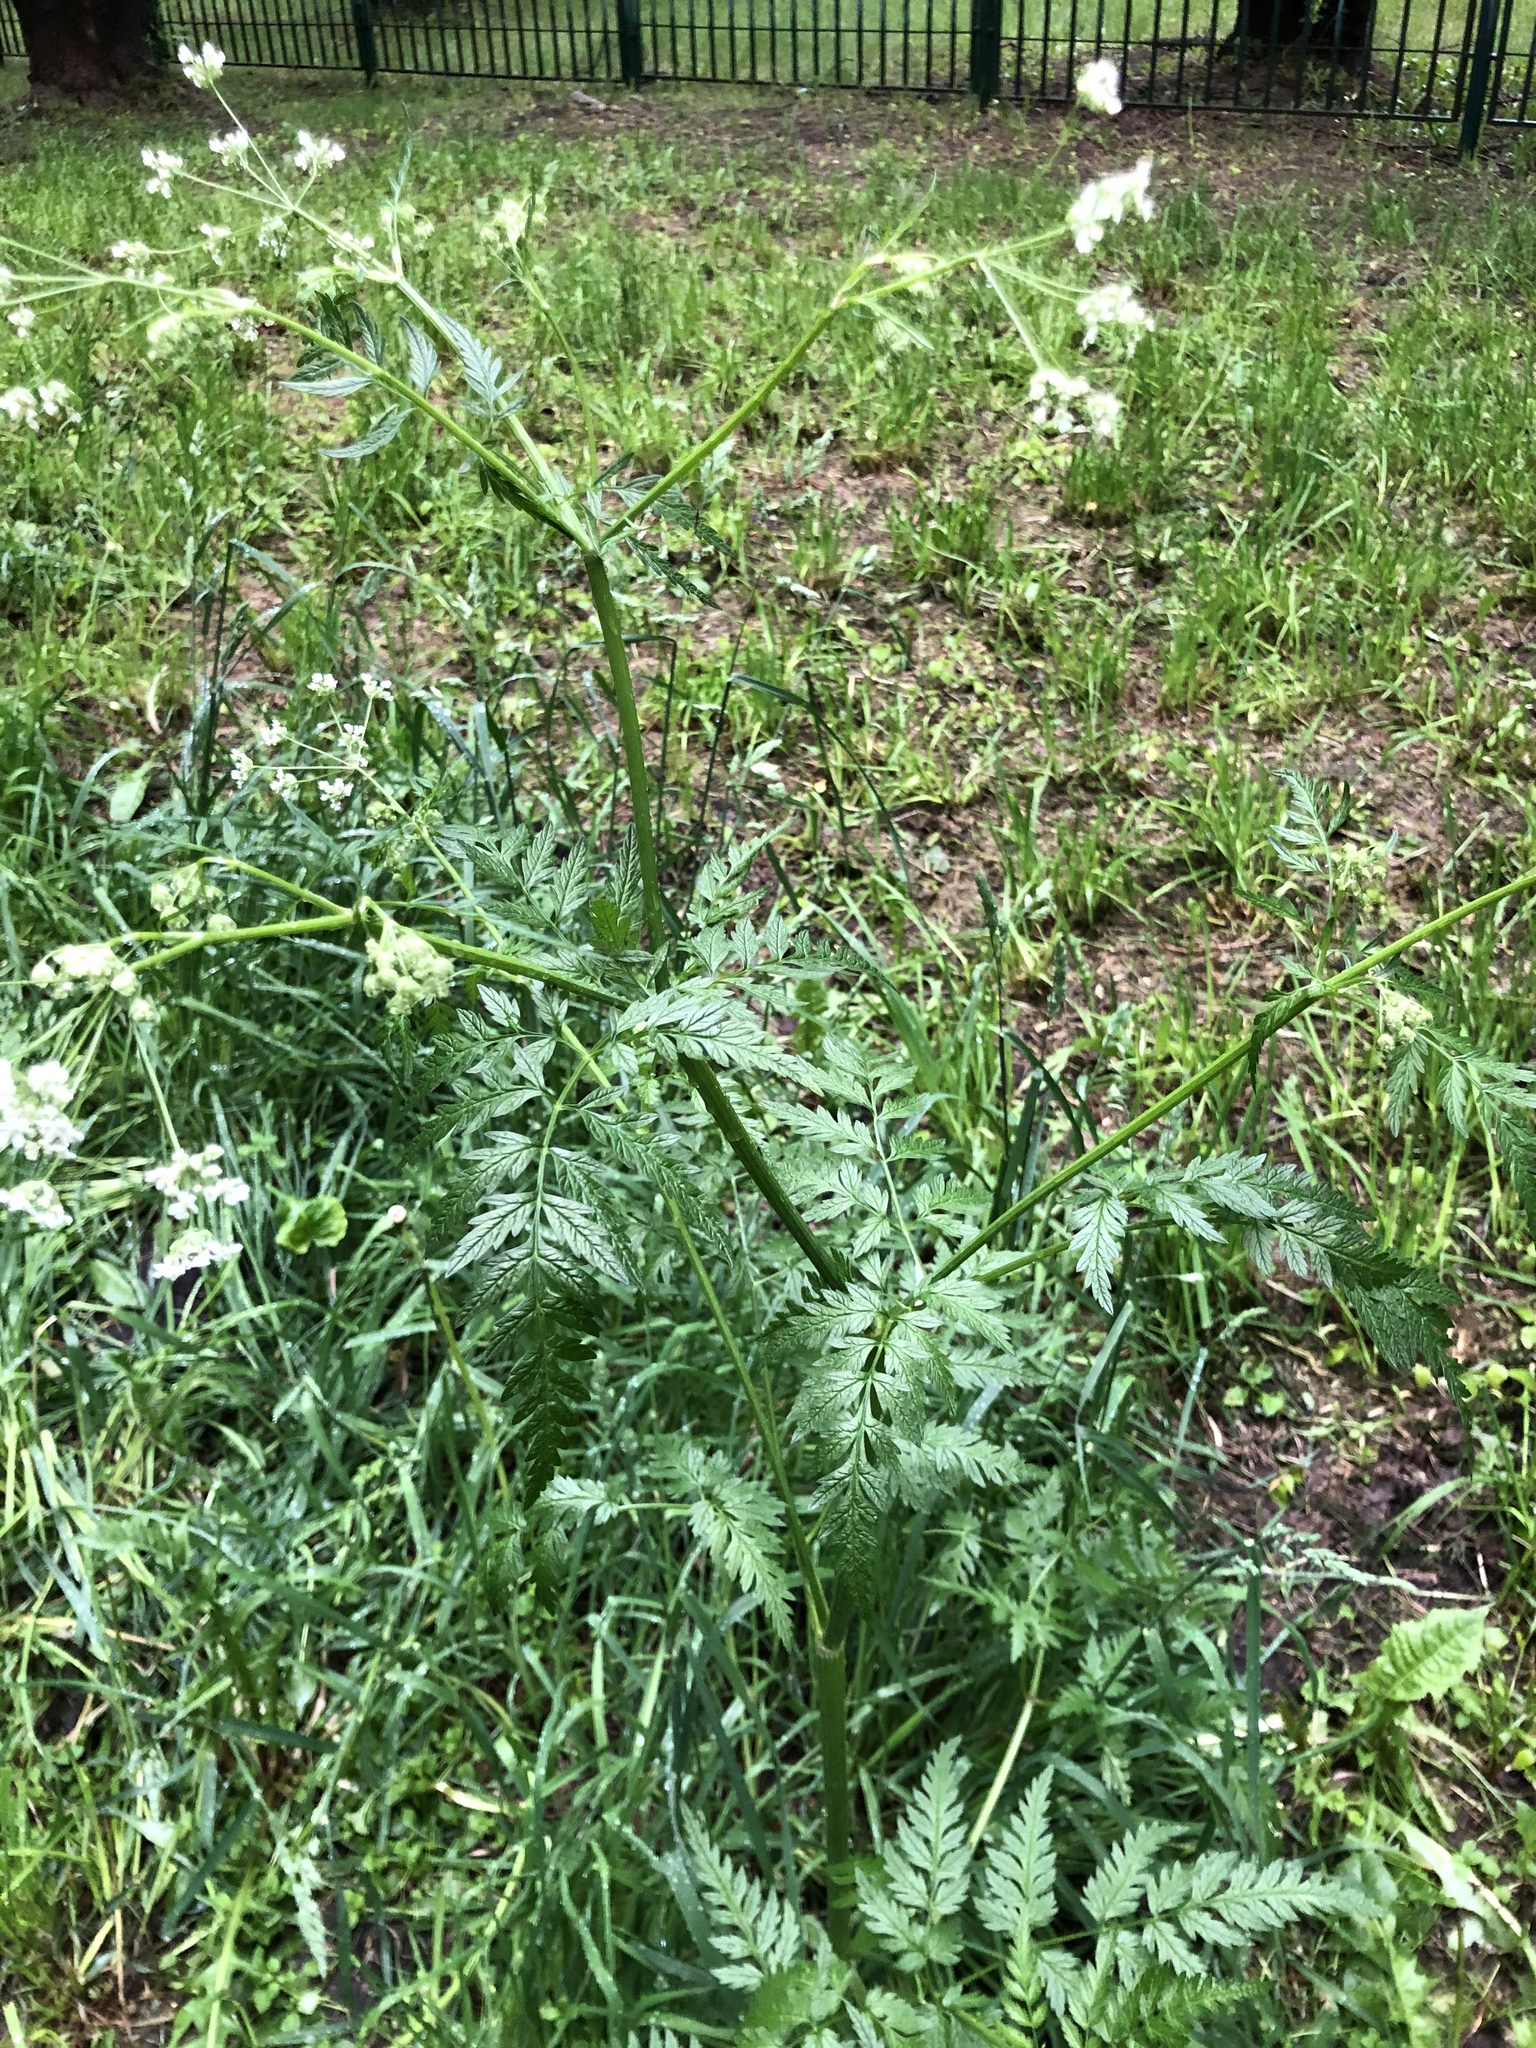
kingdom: Plantae
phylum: Tracheophyta
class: Magnoliopsida
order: Apiales
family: Apiaceae
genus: Anthriscus
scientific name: Anthriscus sylvestris
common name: Cow parsley
